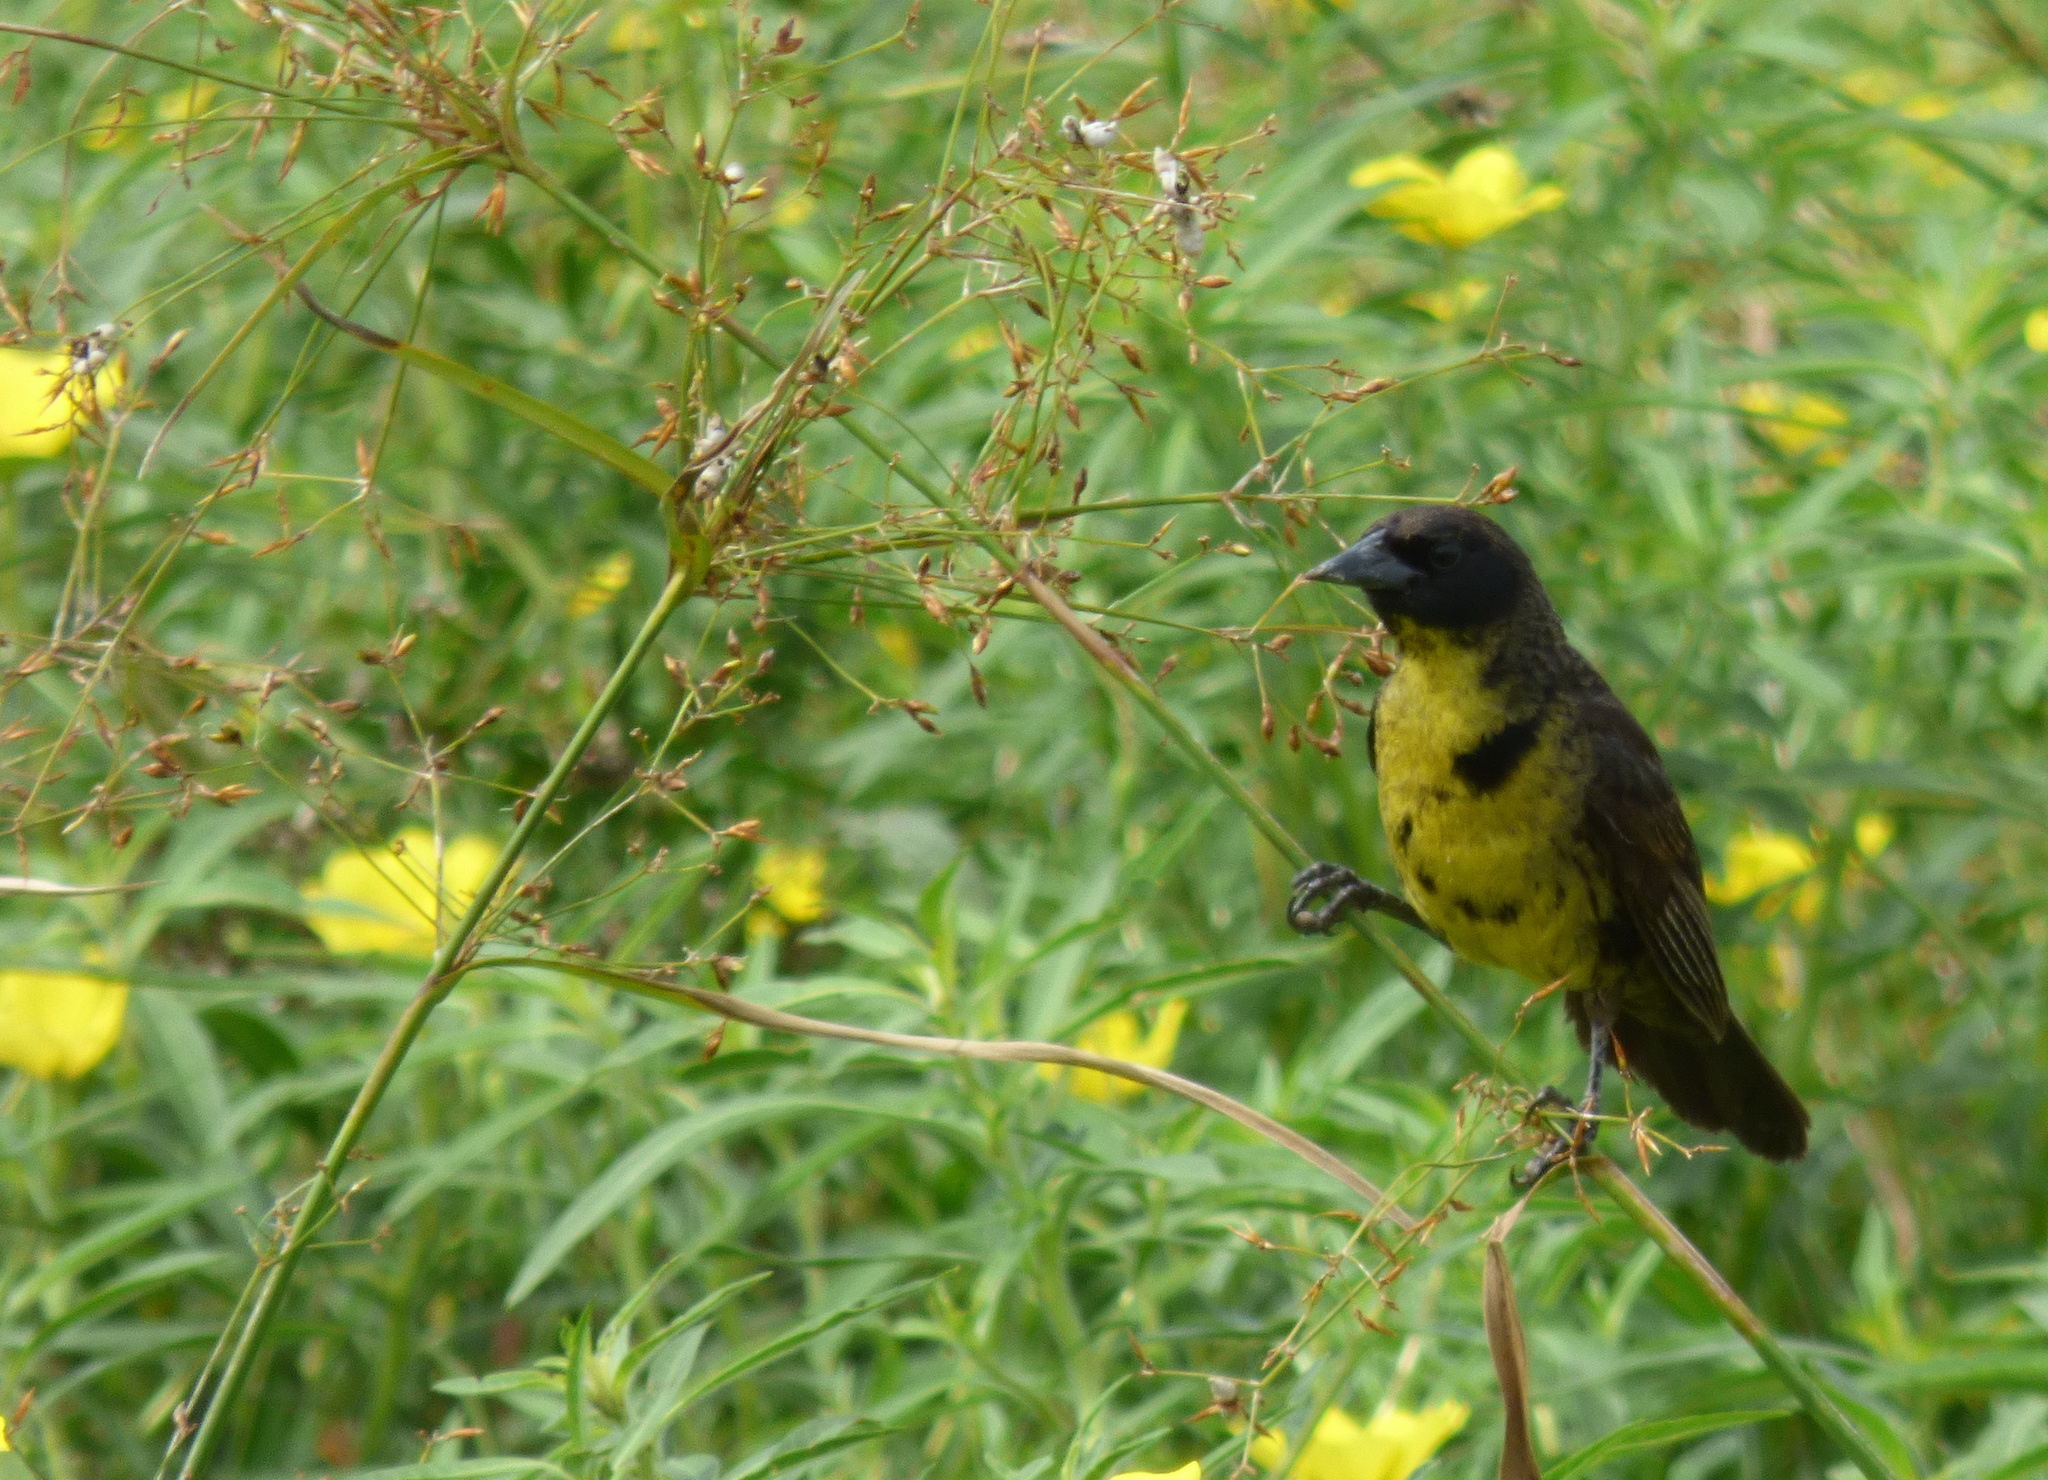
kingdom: Animalia
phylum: Chordata
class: Aves
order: Passeriformes
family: Icteridae
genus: Agelasticus
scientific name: Agelasticus cyanopus
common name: Unicolored blackbird
